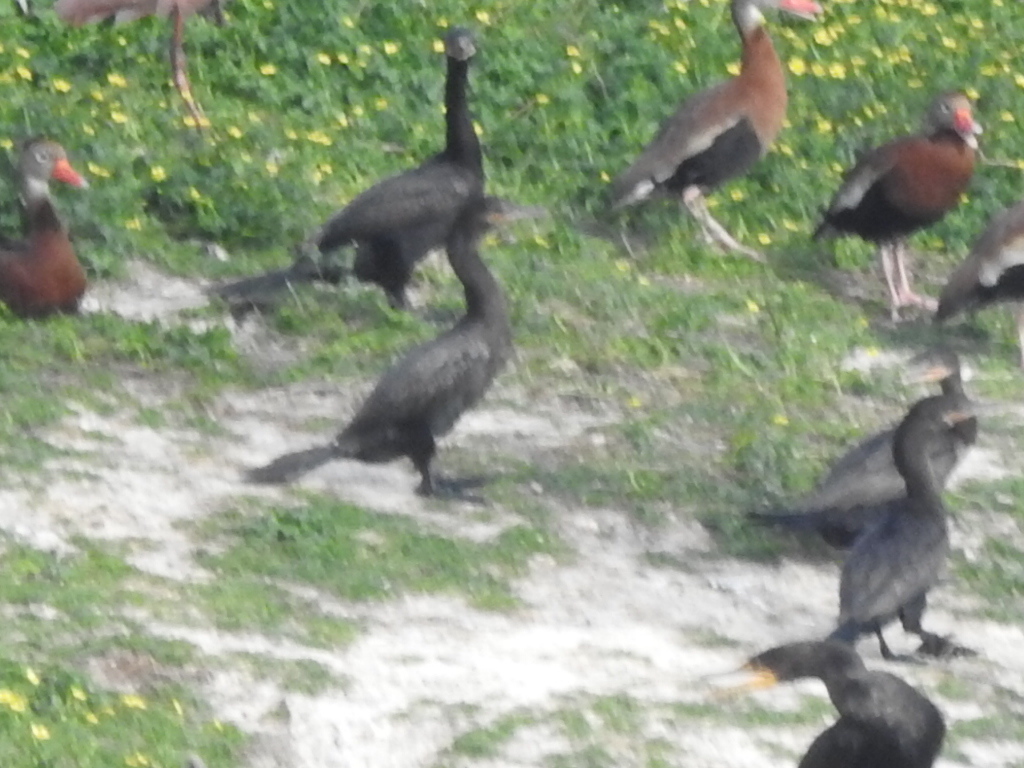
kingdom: Animalia
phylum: Chordata
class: Aves
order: Suliformes
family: Phalacrocoracidae
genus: Phalacrocorax
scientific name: Phalacrocorax brasilianus
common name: Neotropic cormorant
